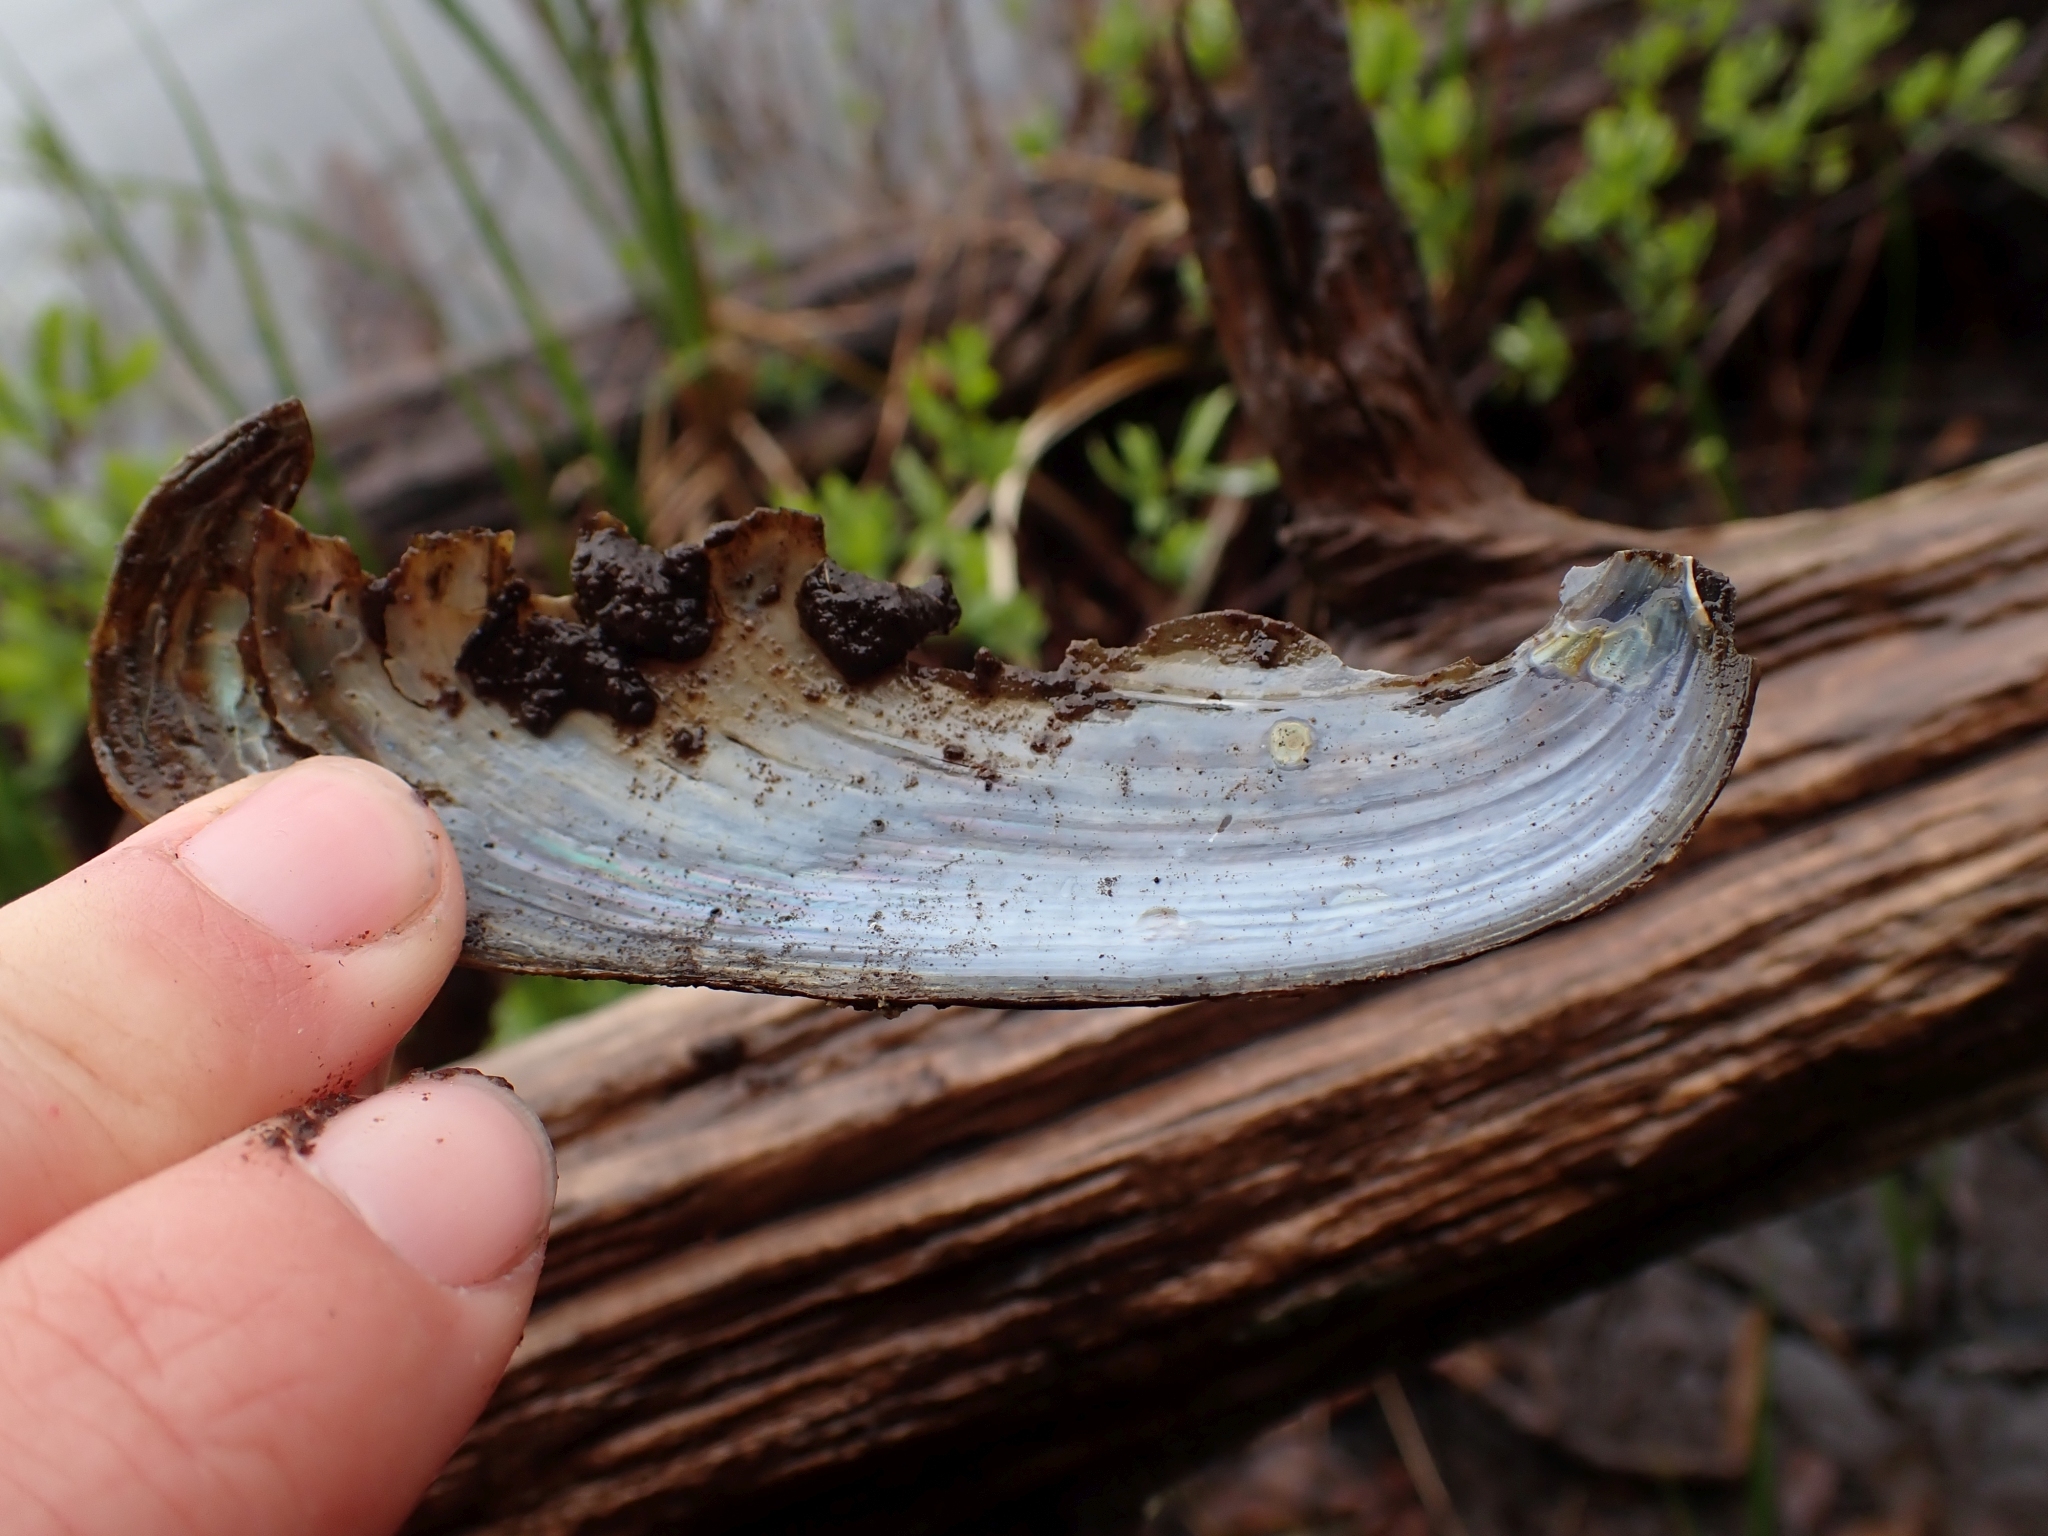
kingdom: Animalia
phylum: Mollusca
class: Bivalvia
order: Unionida
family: Unionidae
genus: Anodonta
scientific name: Anodonta kennerlyi
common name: Western floater
